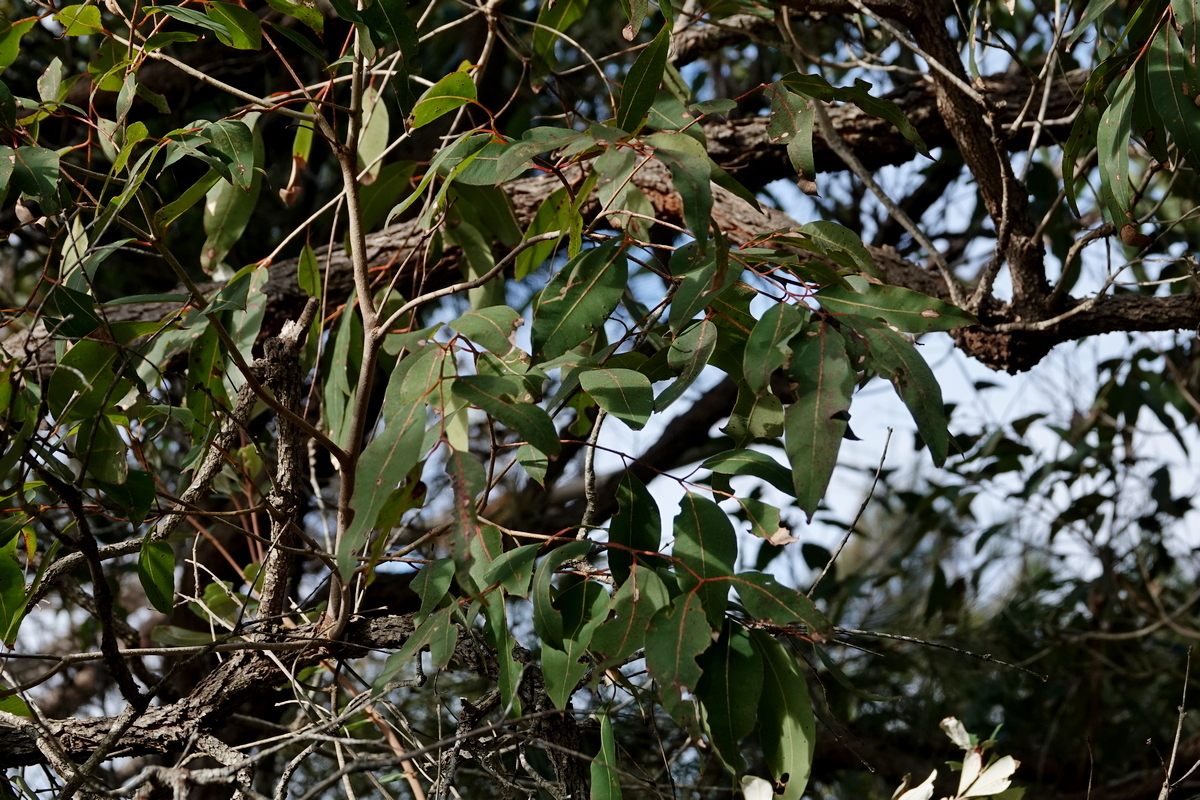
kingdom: Plantae
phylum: Tracheophyta
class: Magnoliopsida
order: Myrtales
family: Myrtaceae
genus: Angophora
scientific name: Angophora floribunda
